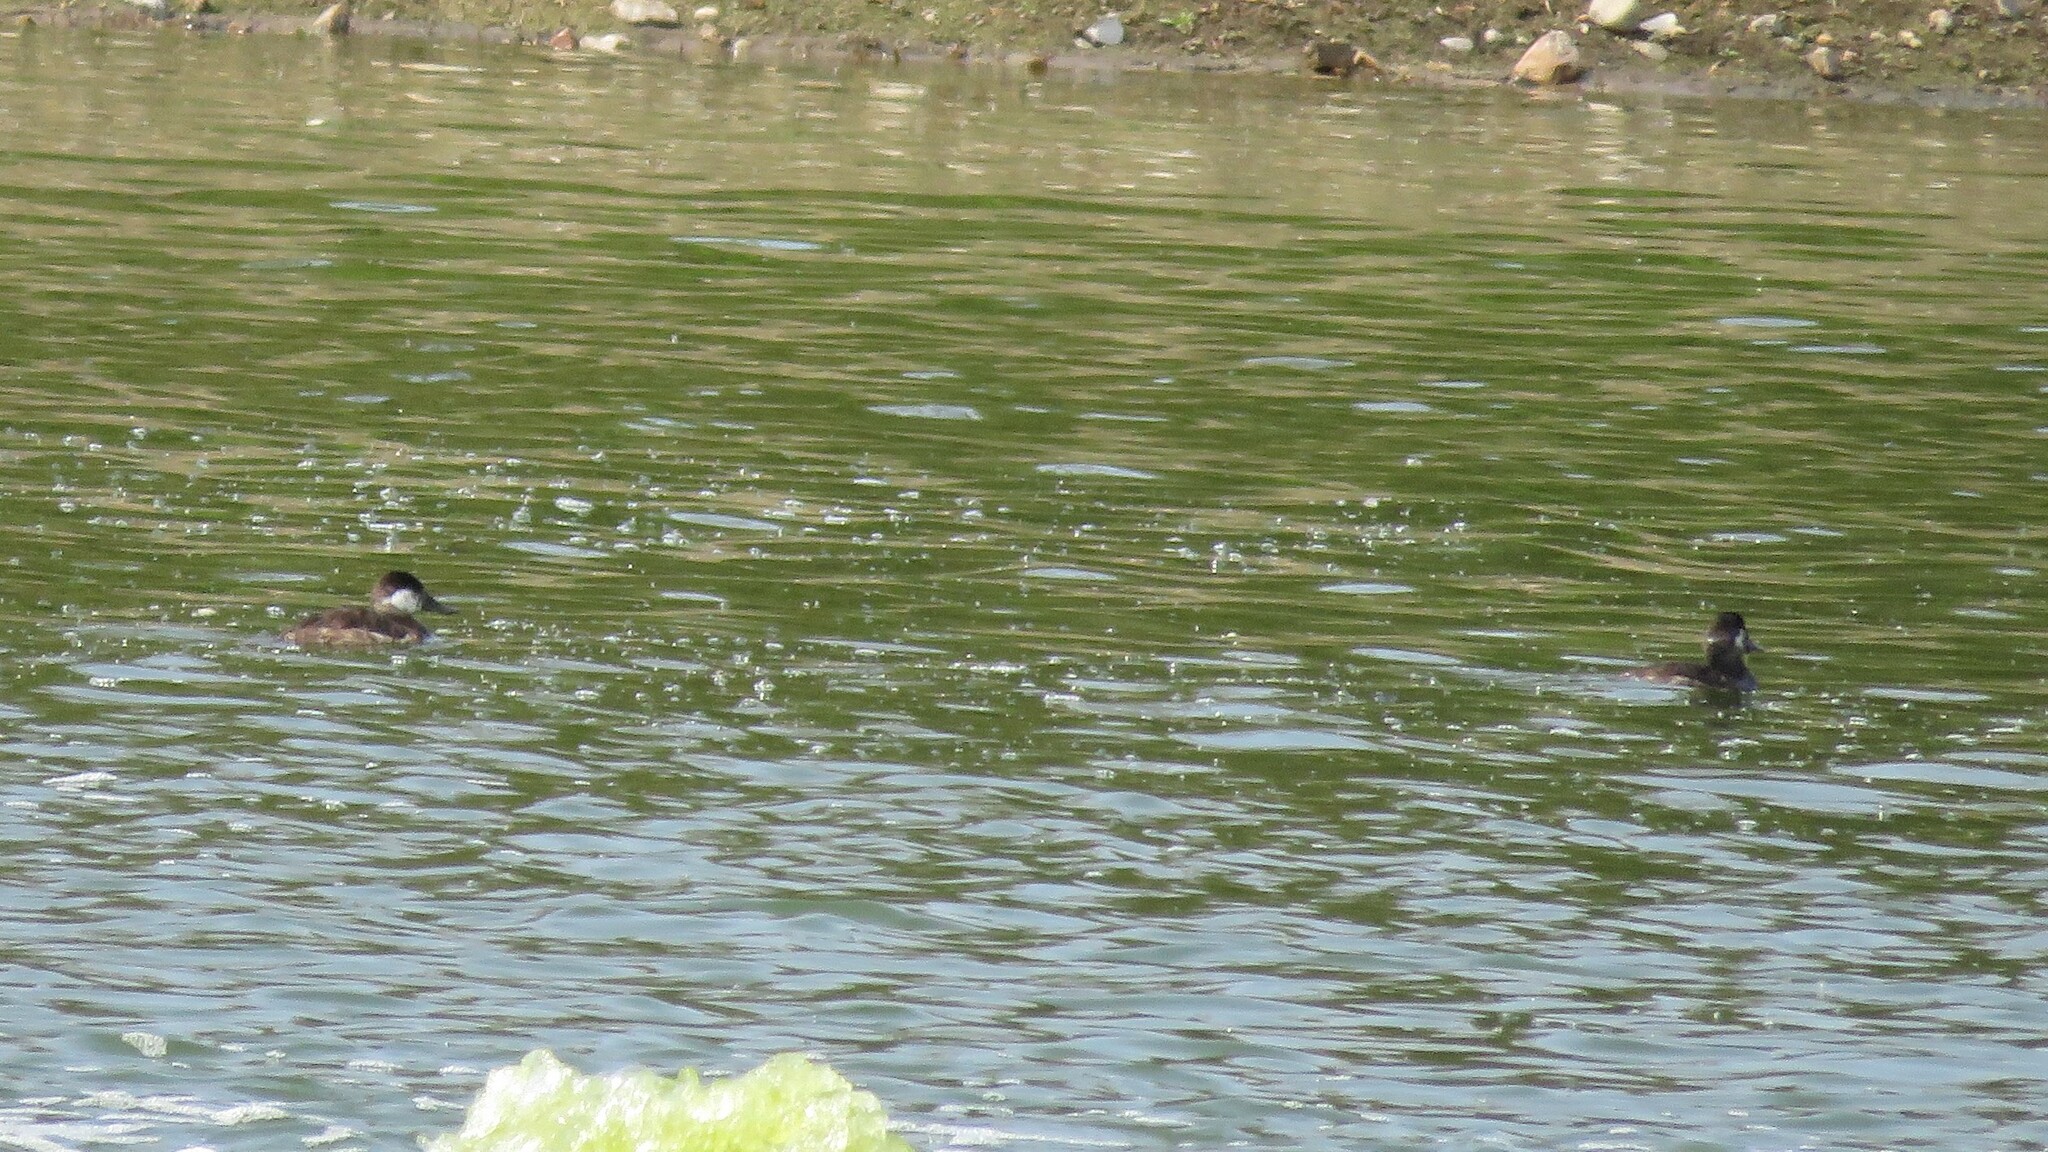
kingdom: Animalia
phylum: Chordata
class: Aves
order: Anseriformes
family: Anatidae
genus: Oxyura
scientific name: Oxyura jamaicensis
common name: Ruddy duck
